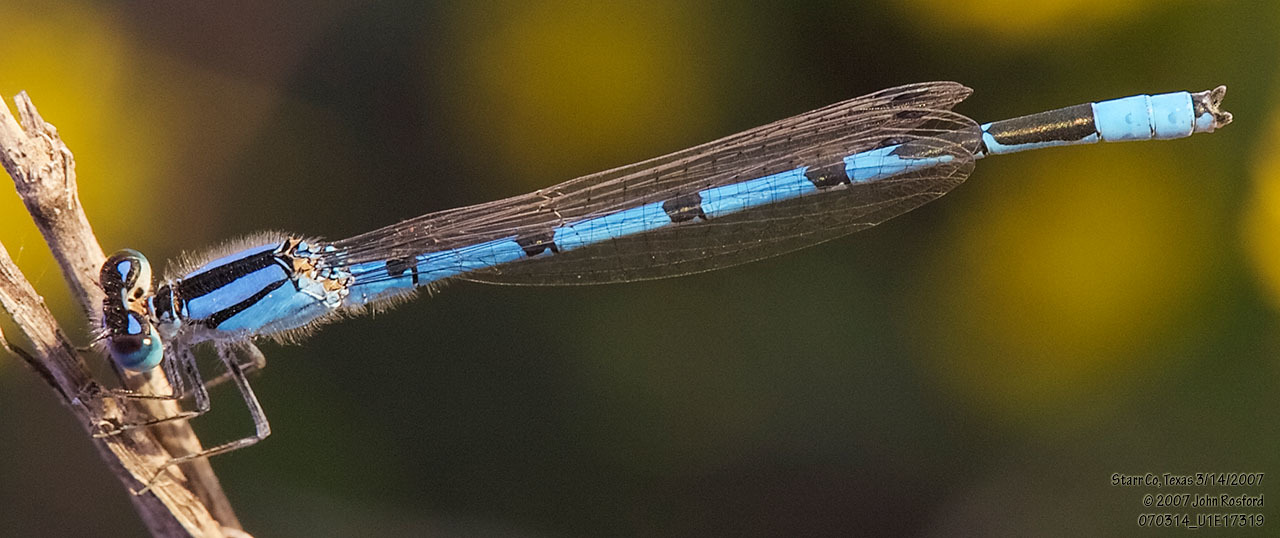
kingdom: Animalia
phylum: Arthropoda
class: Insecta
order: Odonata
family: Coenagrionidae
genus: Enallagma
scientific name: Enallagma civile
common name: Damselfly
